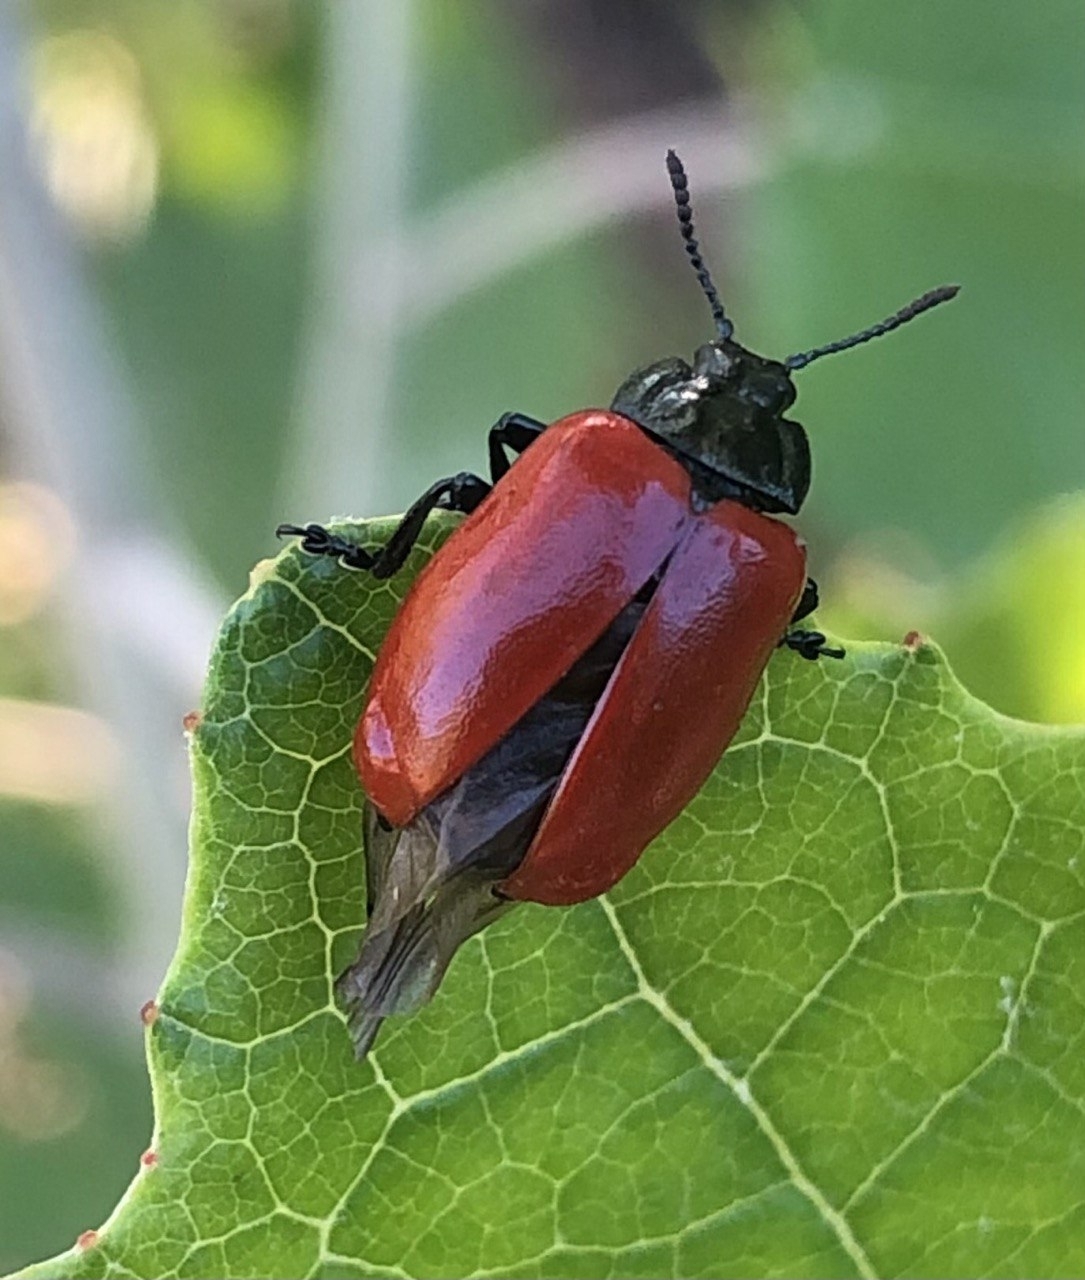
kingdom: Animalia
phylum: Arthropoda
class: Insecta
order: Coleoptera
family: Chrysomelidae
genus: Chrysomela
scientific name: Chrysomela populi
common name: Red poplar leaf beetle
